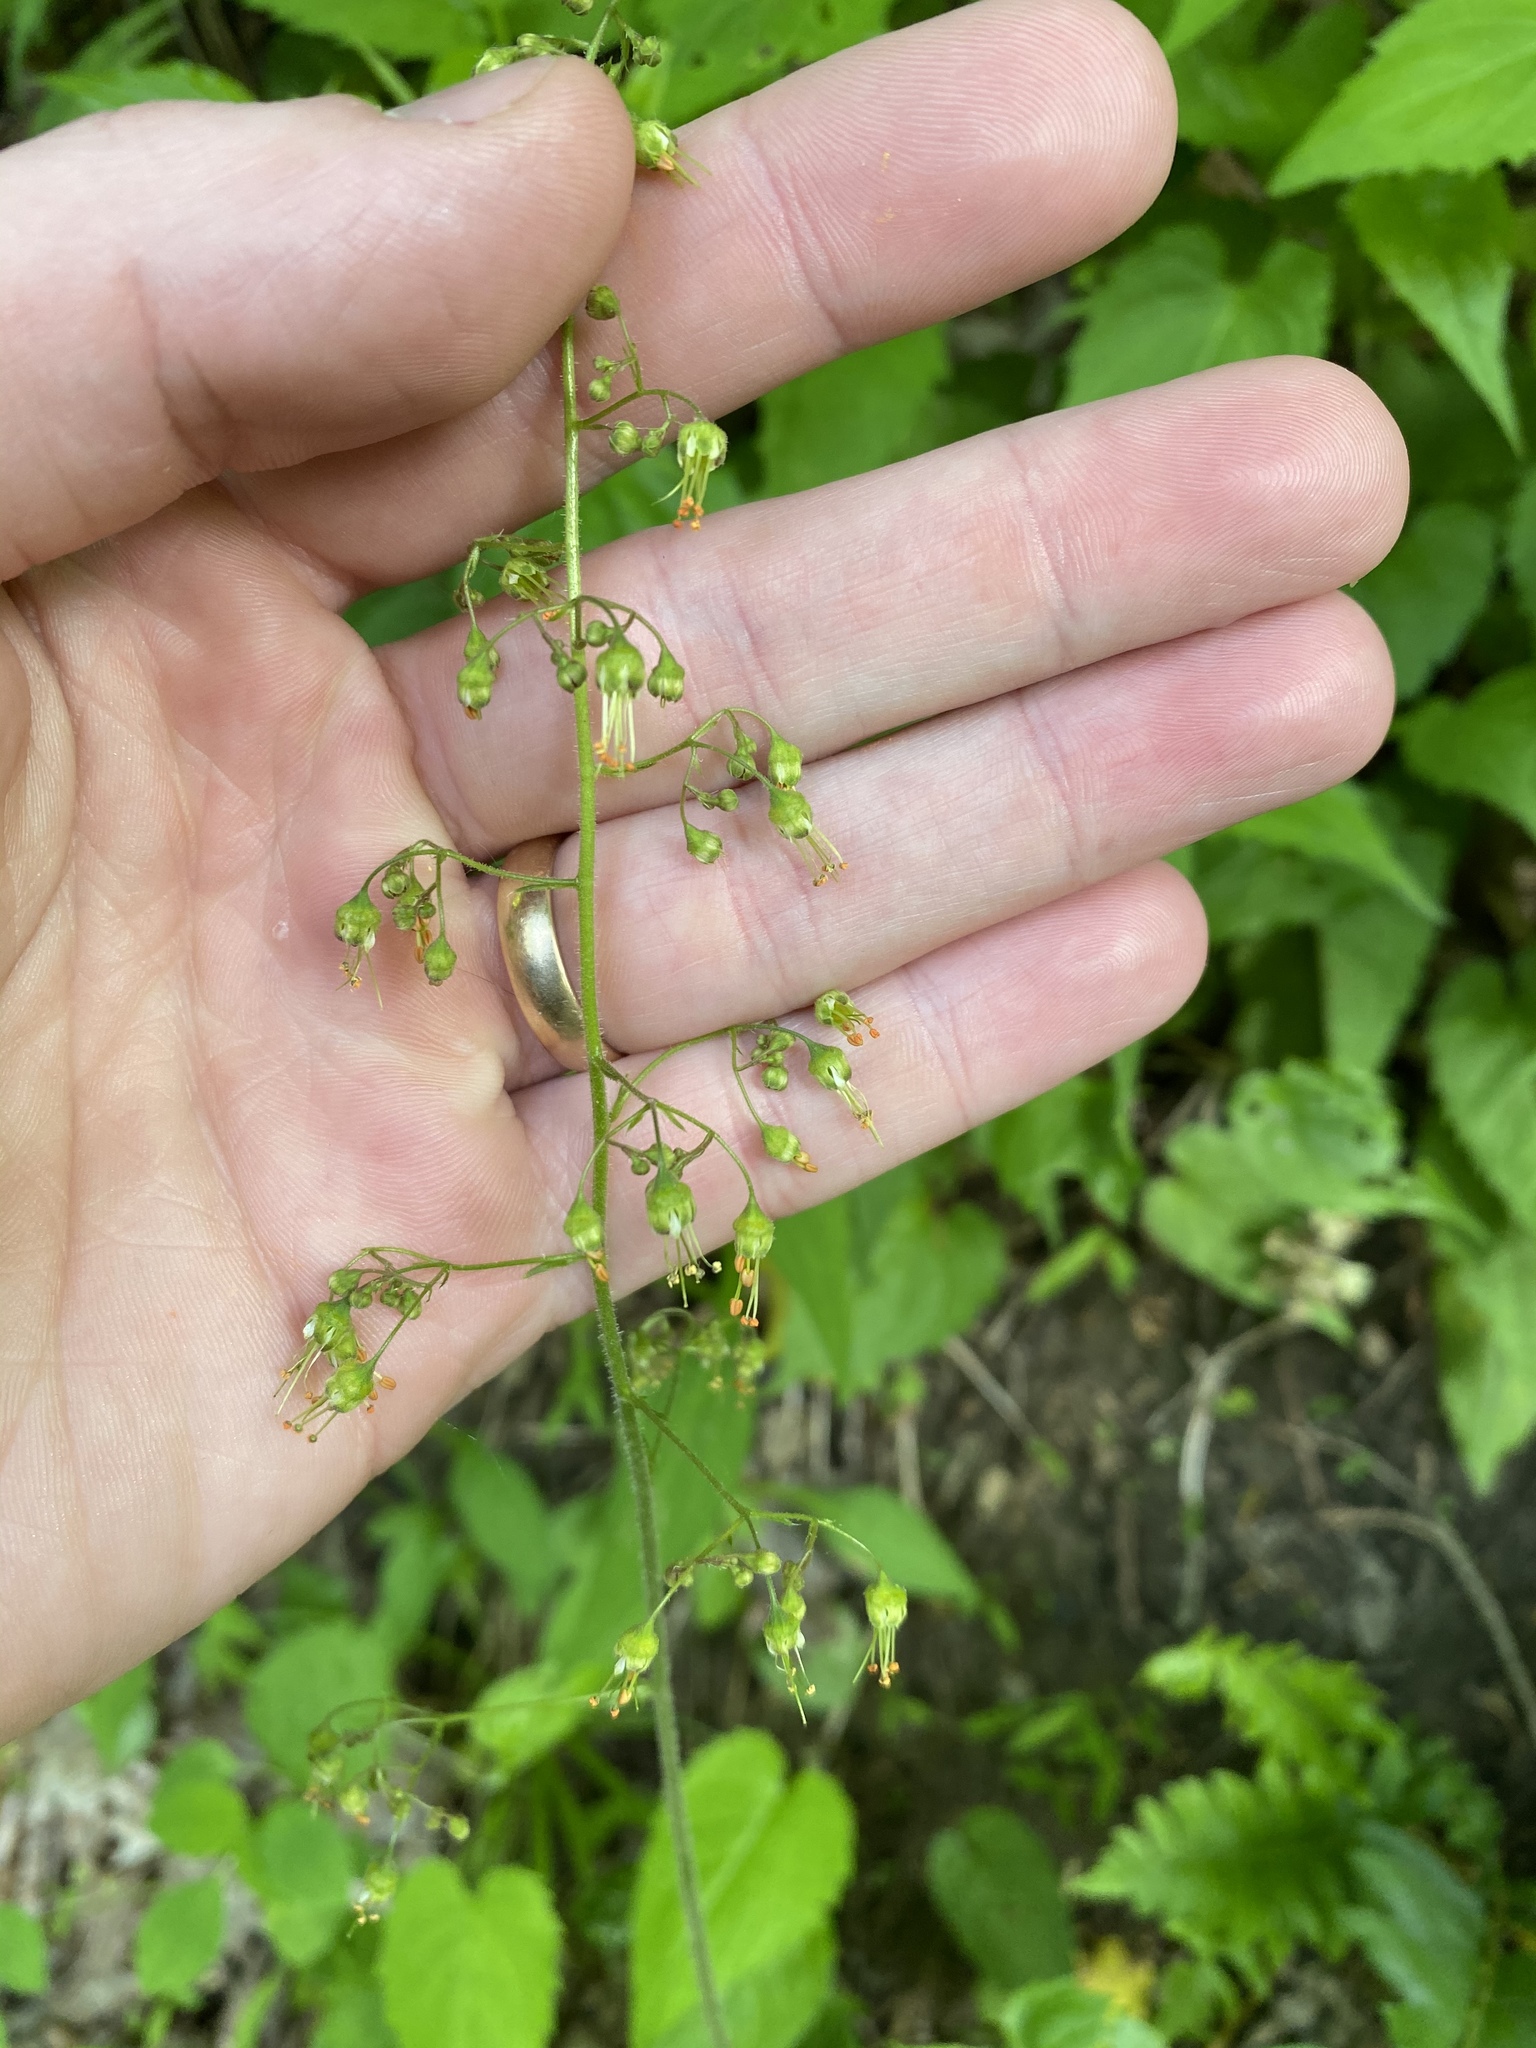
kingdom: Plantae
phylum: Tracheophyta
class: Magnoliopsida
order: Saxifragales
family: Saxifragaceae
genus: Heuchera
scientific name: Heuchera americana
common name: Alumroot
